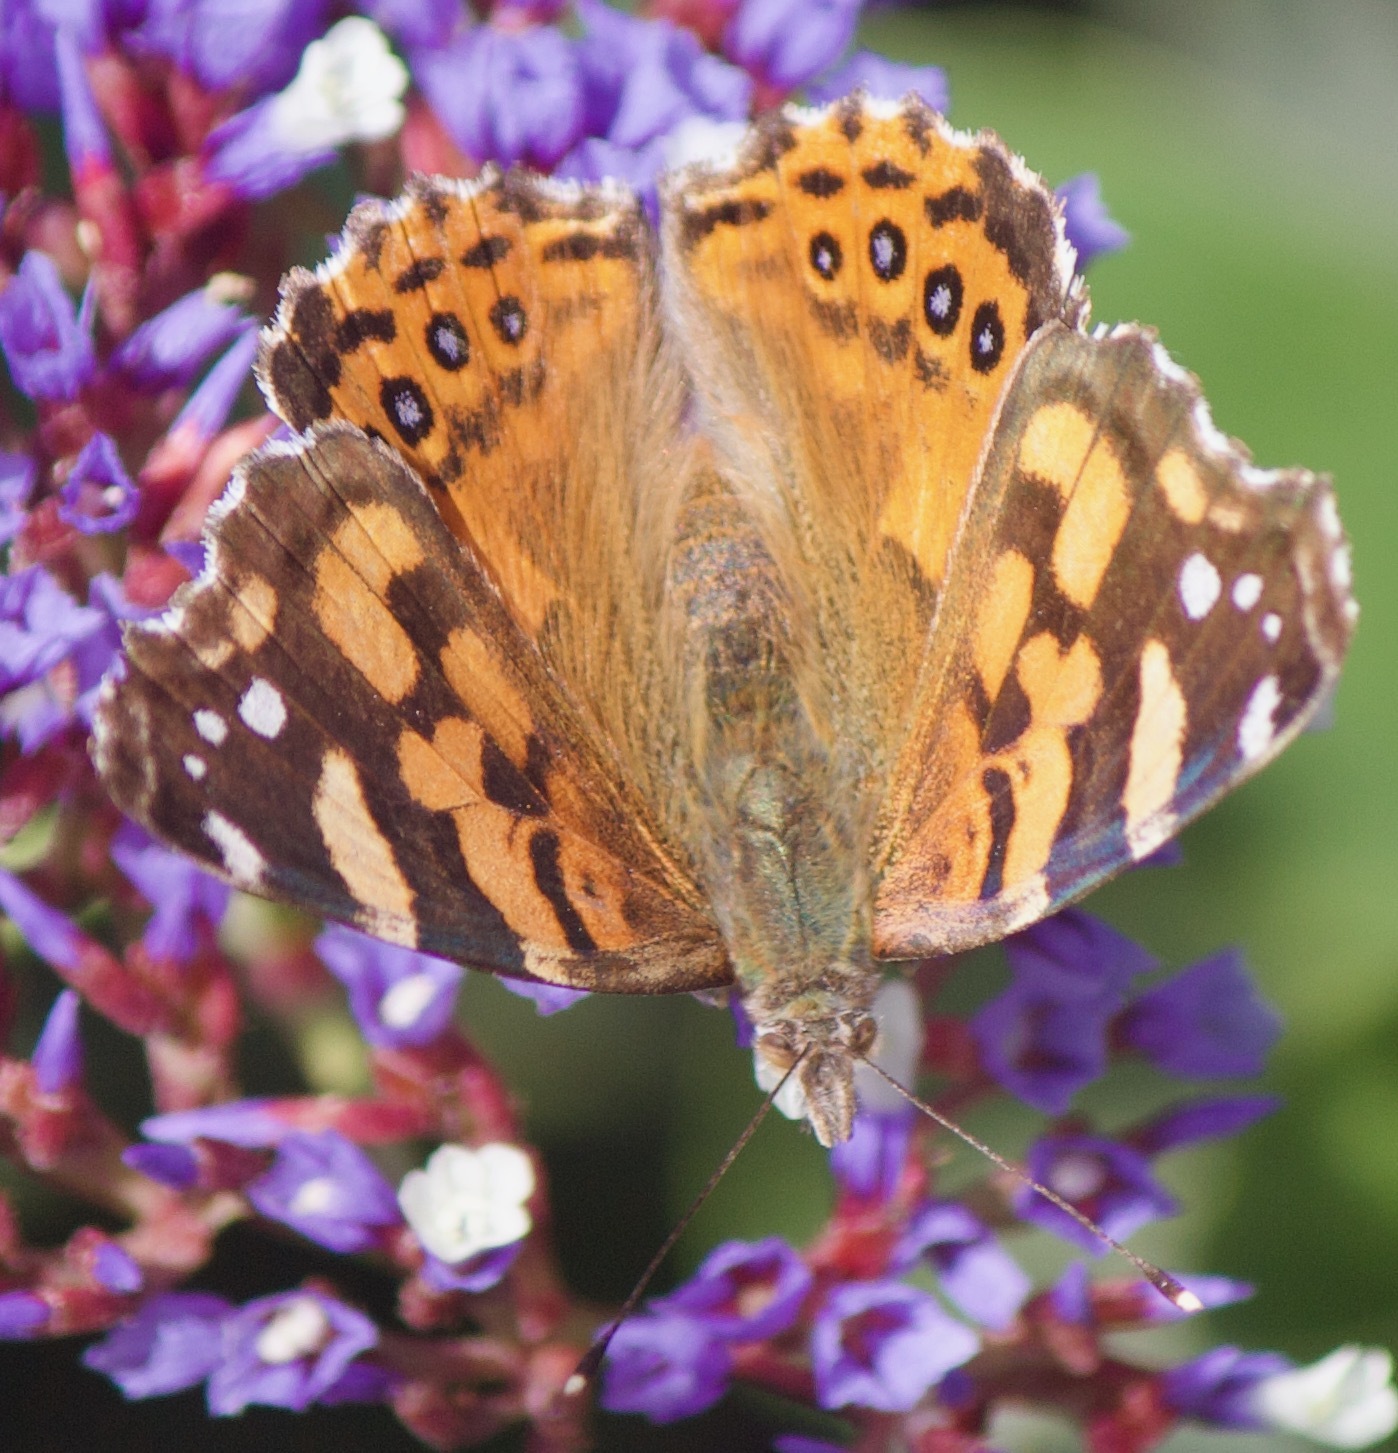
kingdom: Animalia
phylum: Arthropoda
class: Insecta
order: Lepidoptera
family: Nymphalidae
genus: Vanessa
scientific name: Vanessa carye
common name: Subtropical lady
